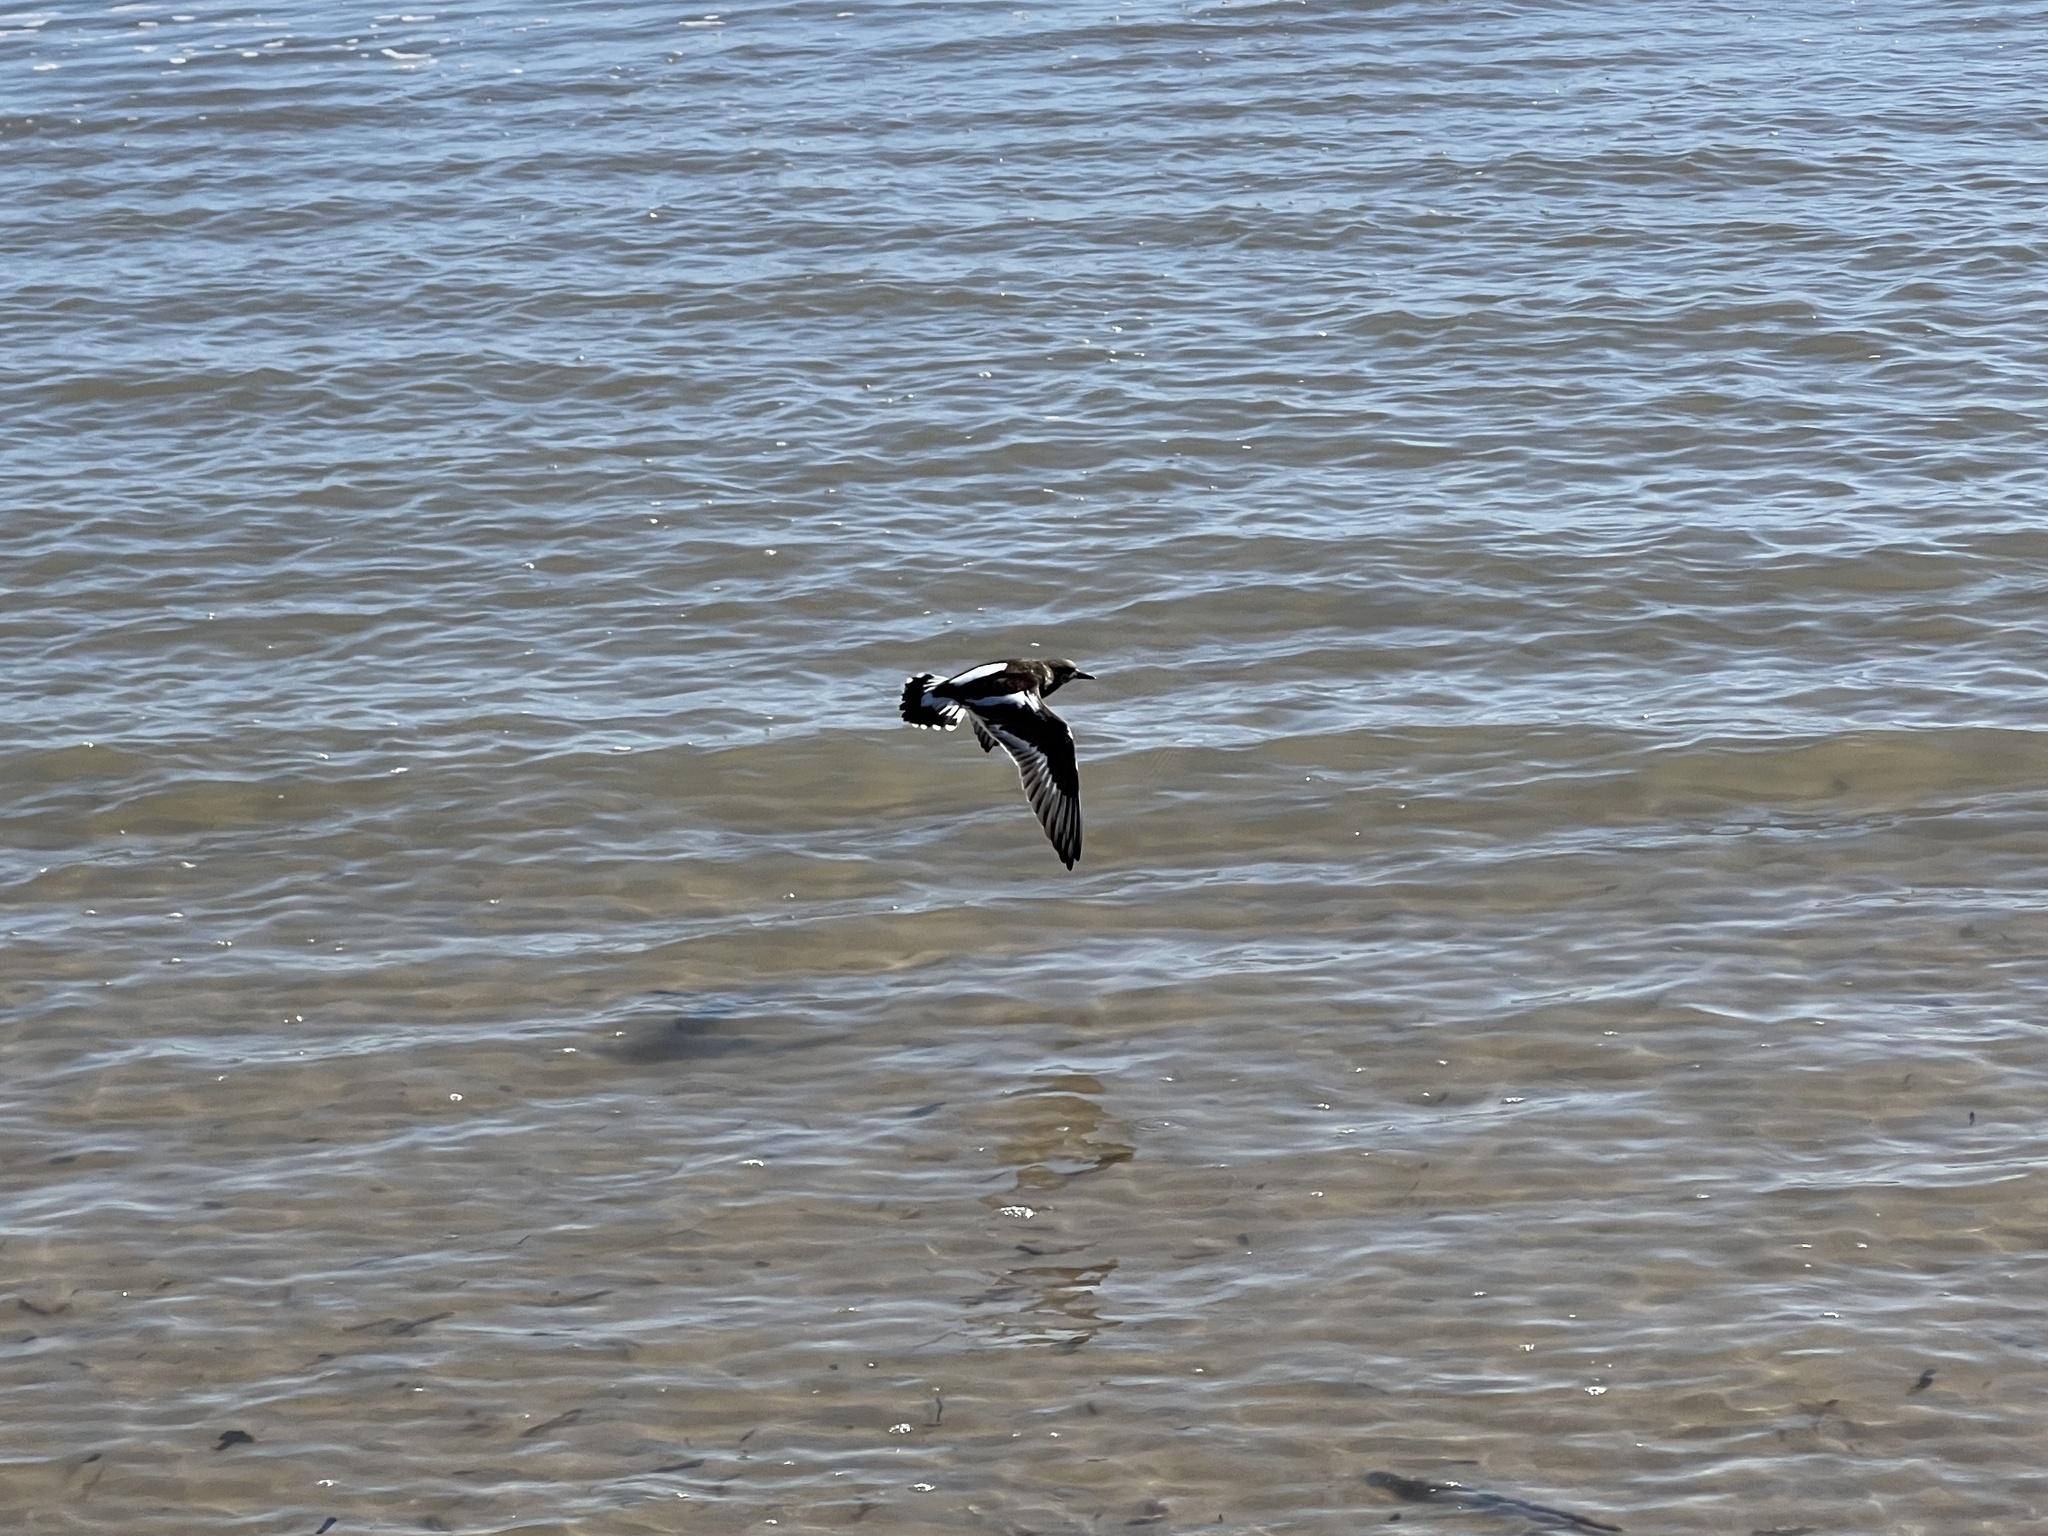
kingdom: Animalia
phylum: Chordata
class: Aves
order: Charadriiformes
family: Scolopacidae
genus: Arenaria
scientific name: Arenaria interpres
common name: Ruddy turnstone
